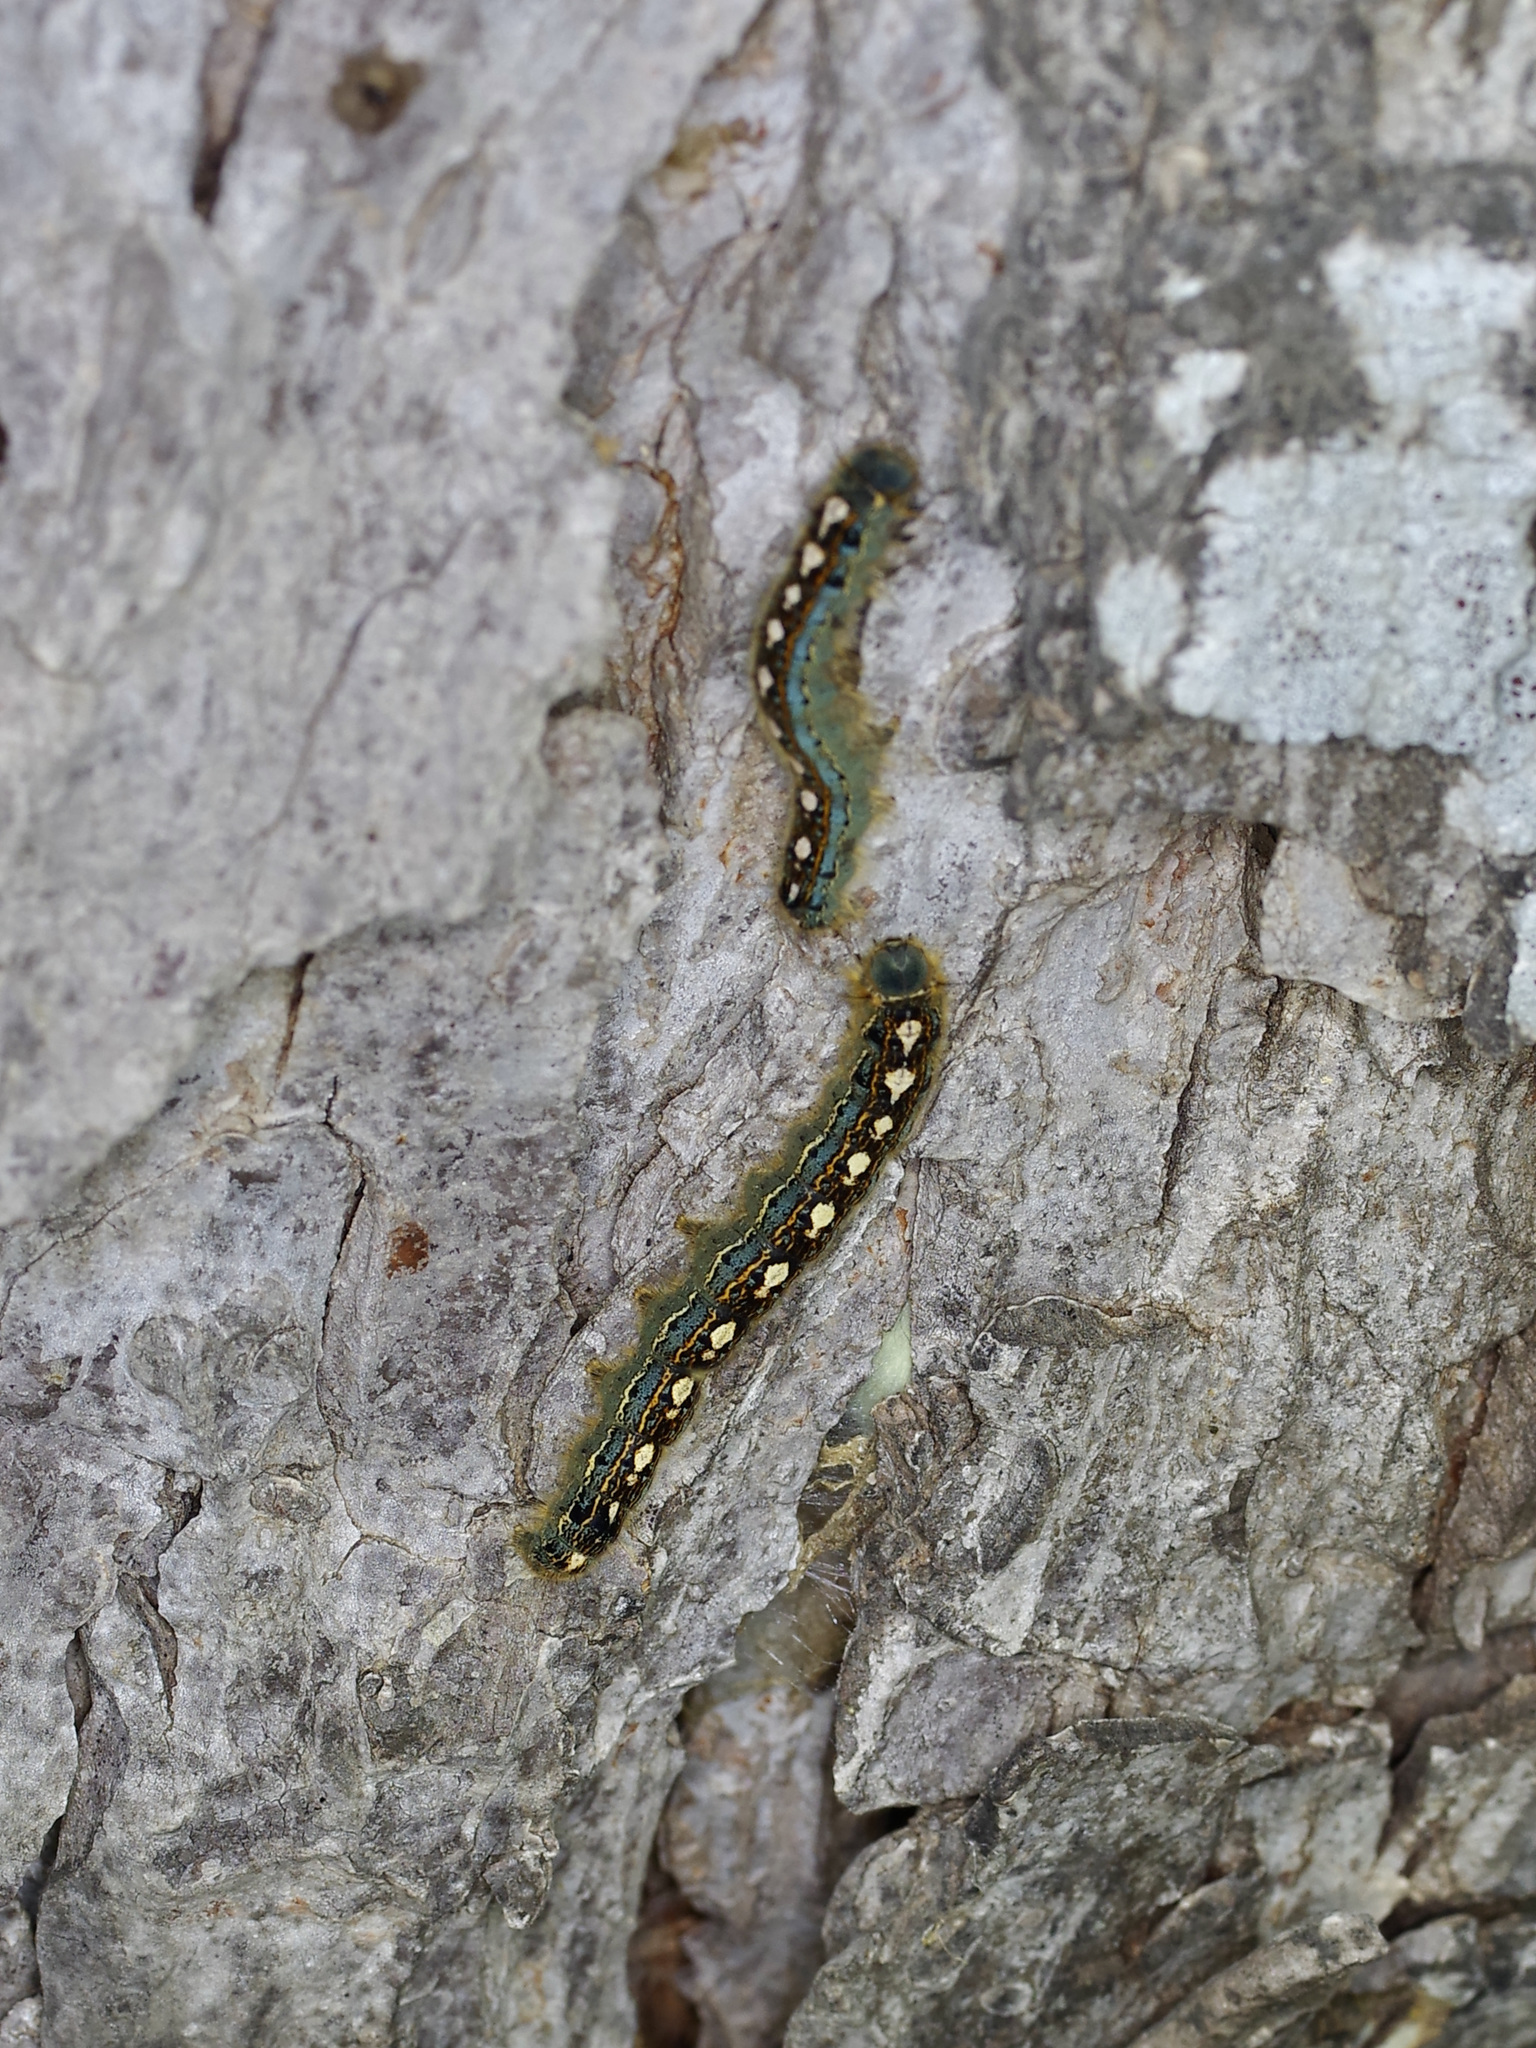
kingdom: Animalia
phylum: Arthropoda
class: Insecta
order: Lepidoptera
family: Lasiocampidae
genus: Malacosoma
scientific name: Malacosoma disstria
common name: Forest tent caterpillar
